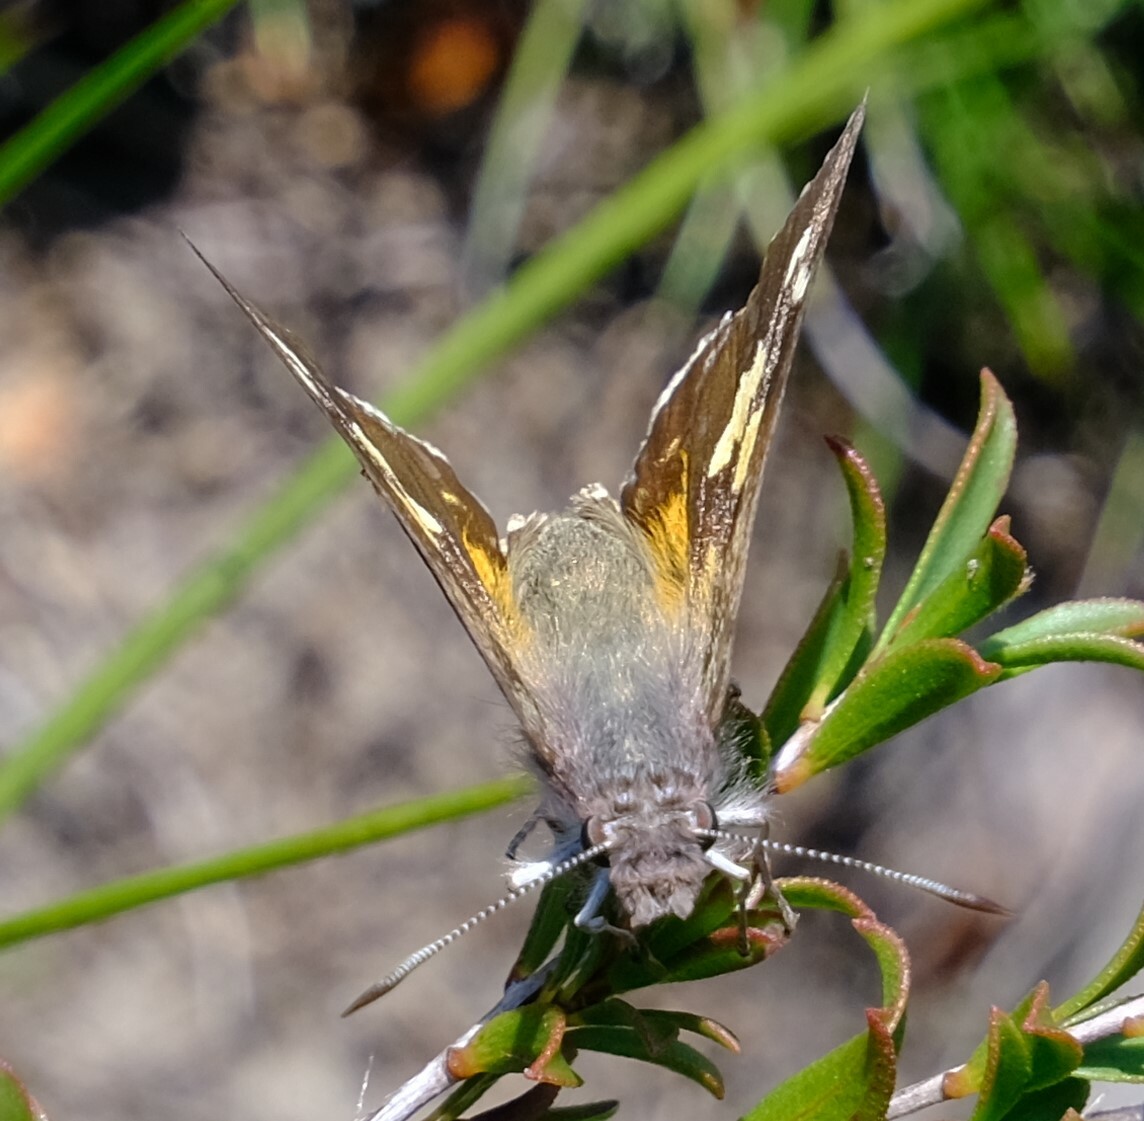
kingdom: Animalia
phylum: Arthropoda
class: Insecta
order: Lepidoptera
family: Hesperiidae
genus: Antipodia
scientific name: Antipodia chaostola
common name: Antipodia skipper
